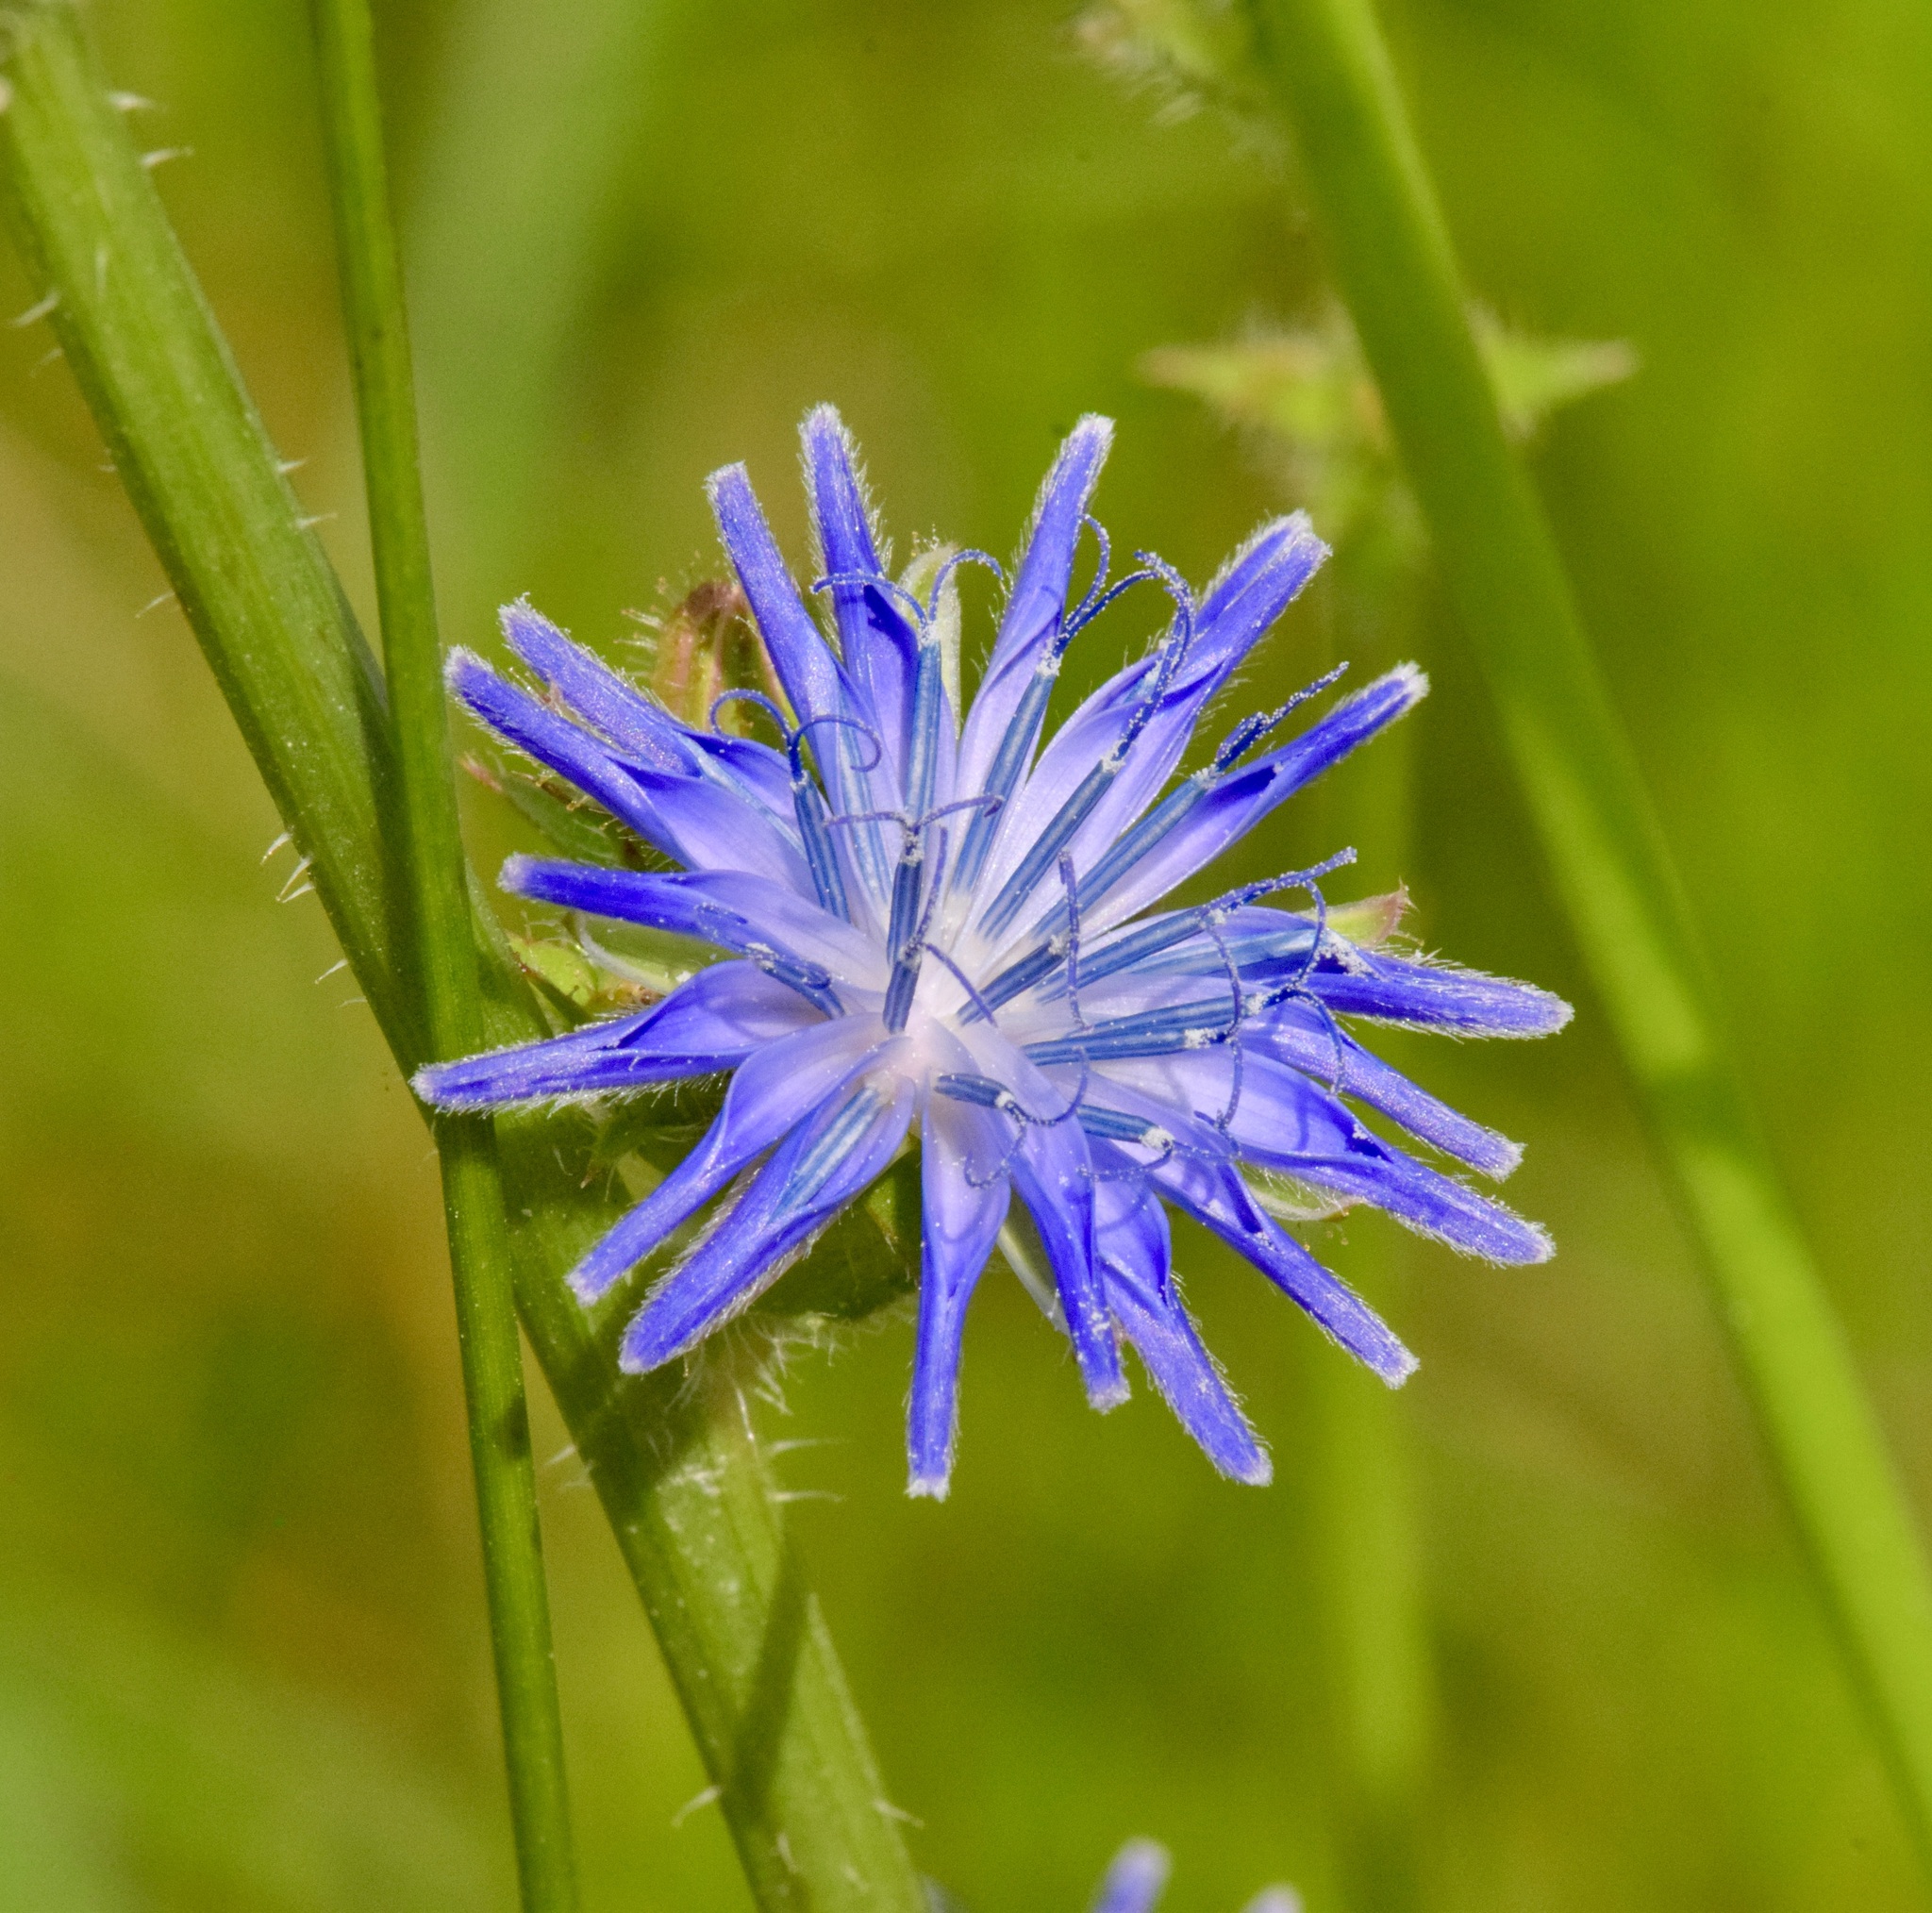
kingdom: Plantae
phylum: Tracheophyta
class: Magnoliopsida
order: Asterales
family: Asteraceae
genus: Cichorium
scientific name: Cichorium intybus
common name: Chicory
